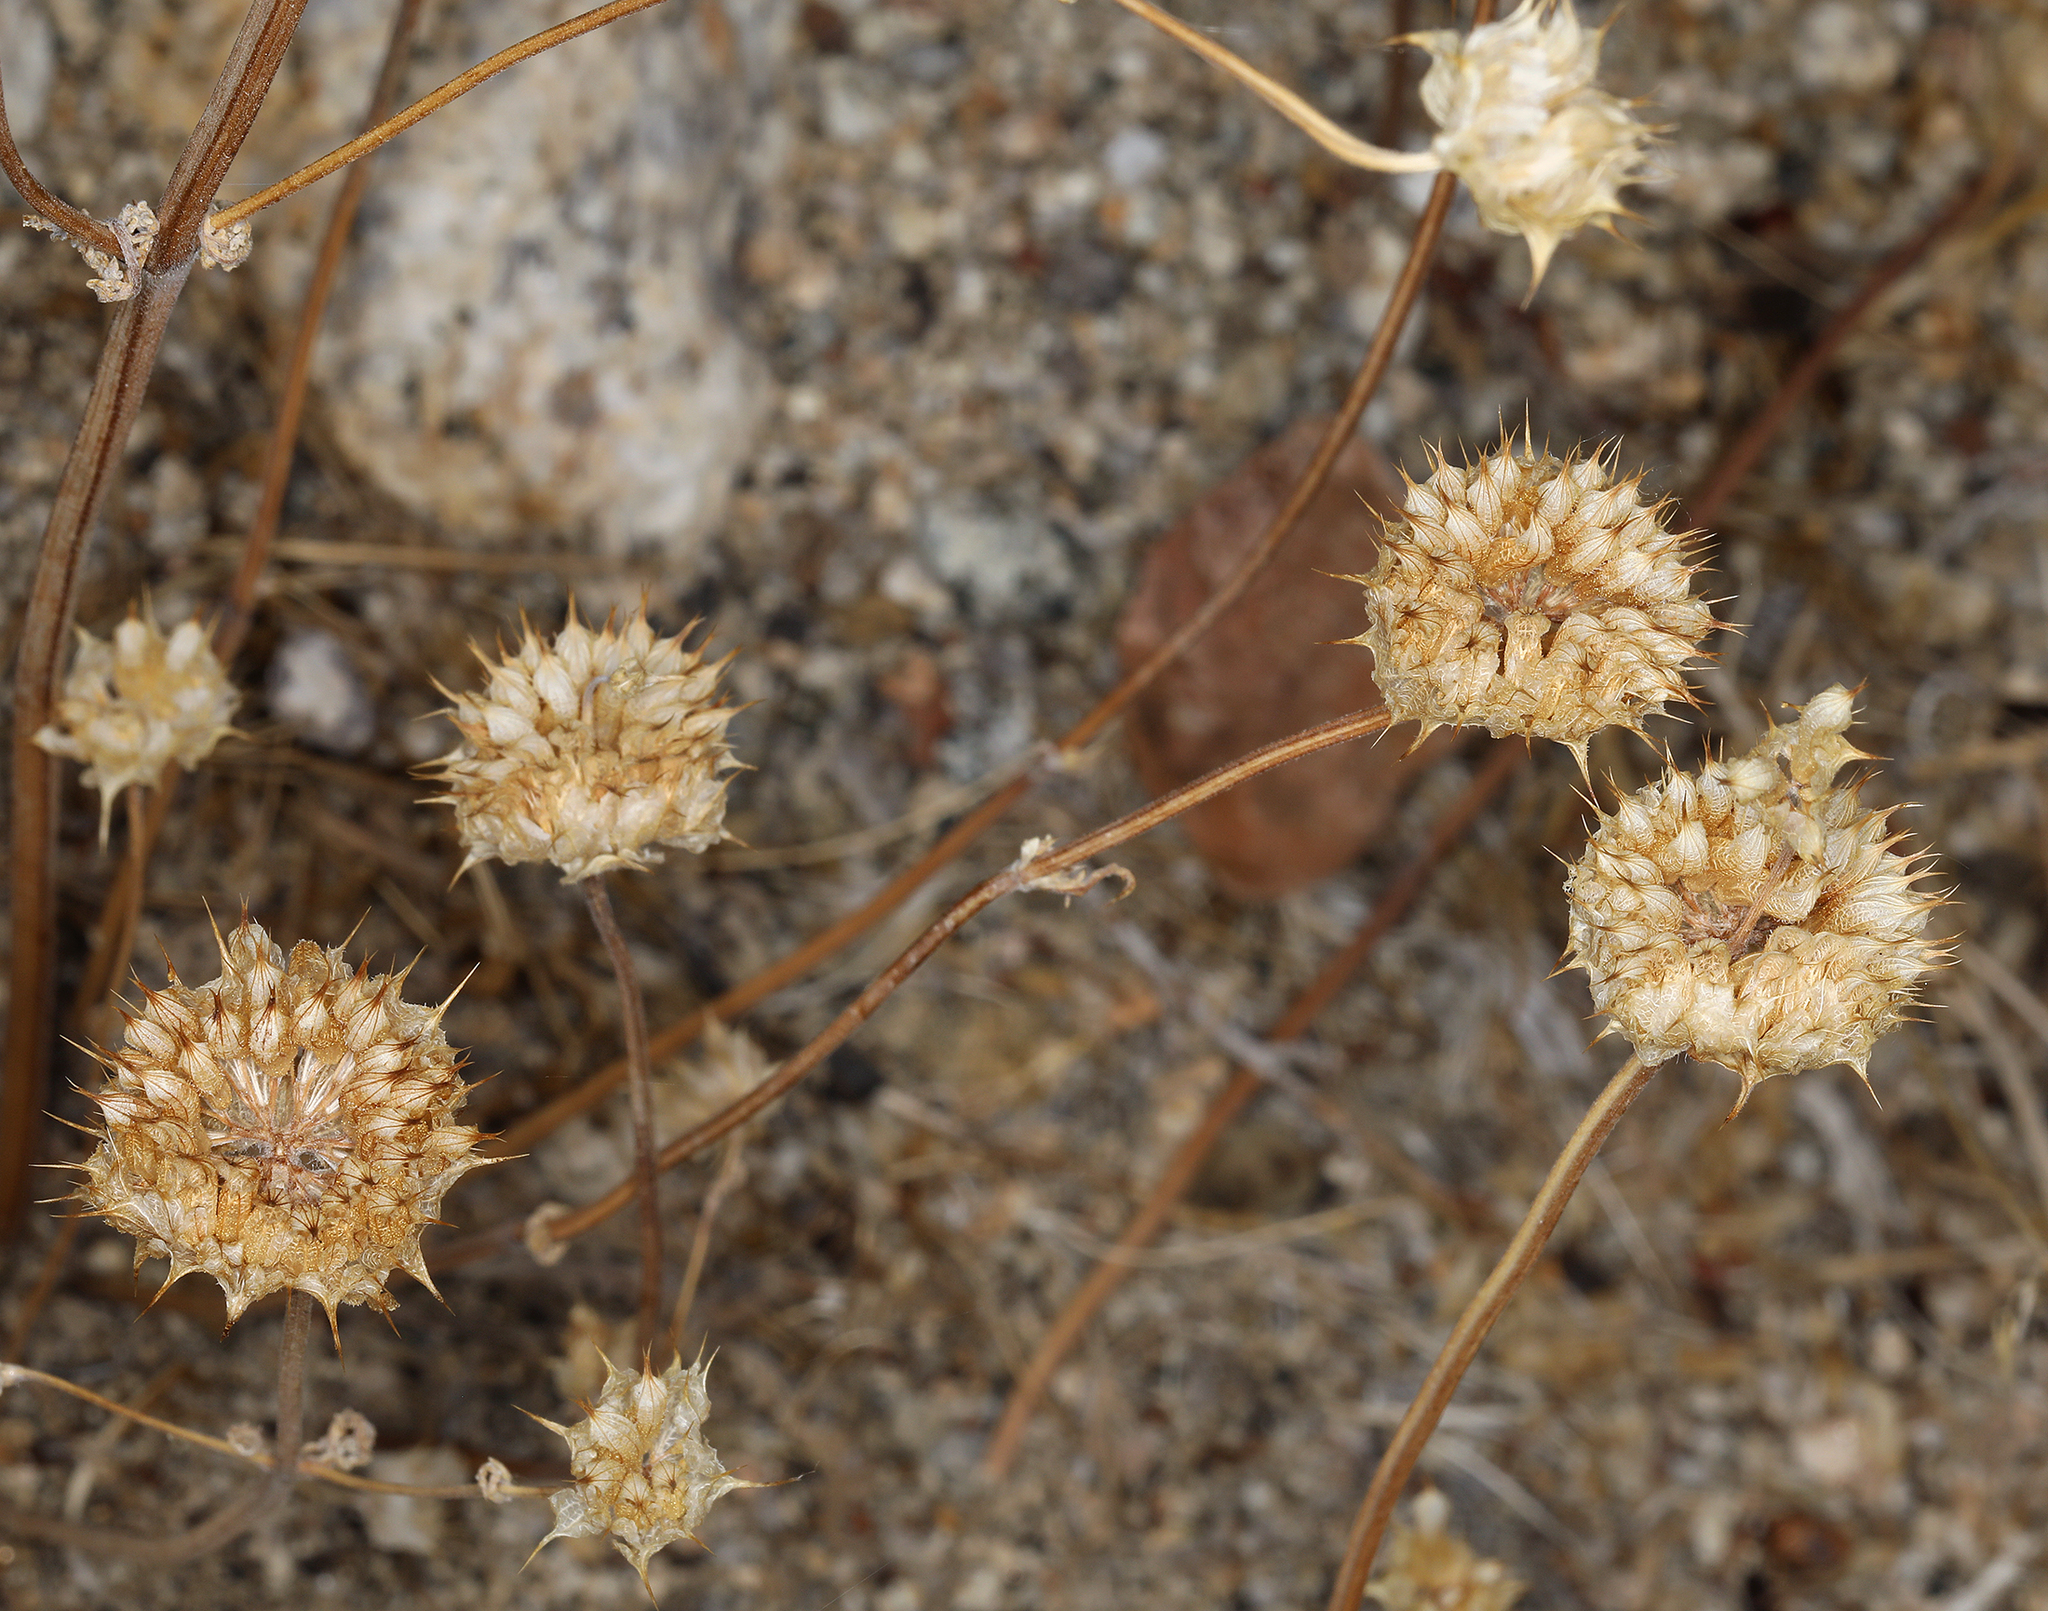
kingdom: Plantae
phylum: Tracheophyta
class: Magnoliopsida
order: Lamiales
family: Lamiaceae
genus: Salvia
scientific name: Salvia columbariae
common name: Chia
